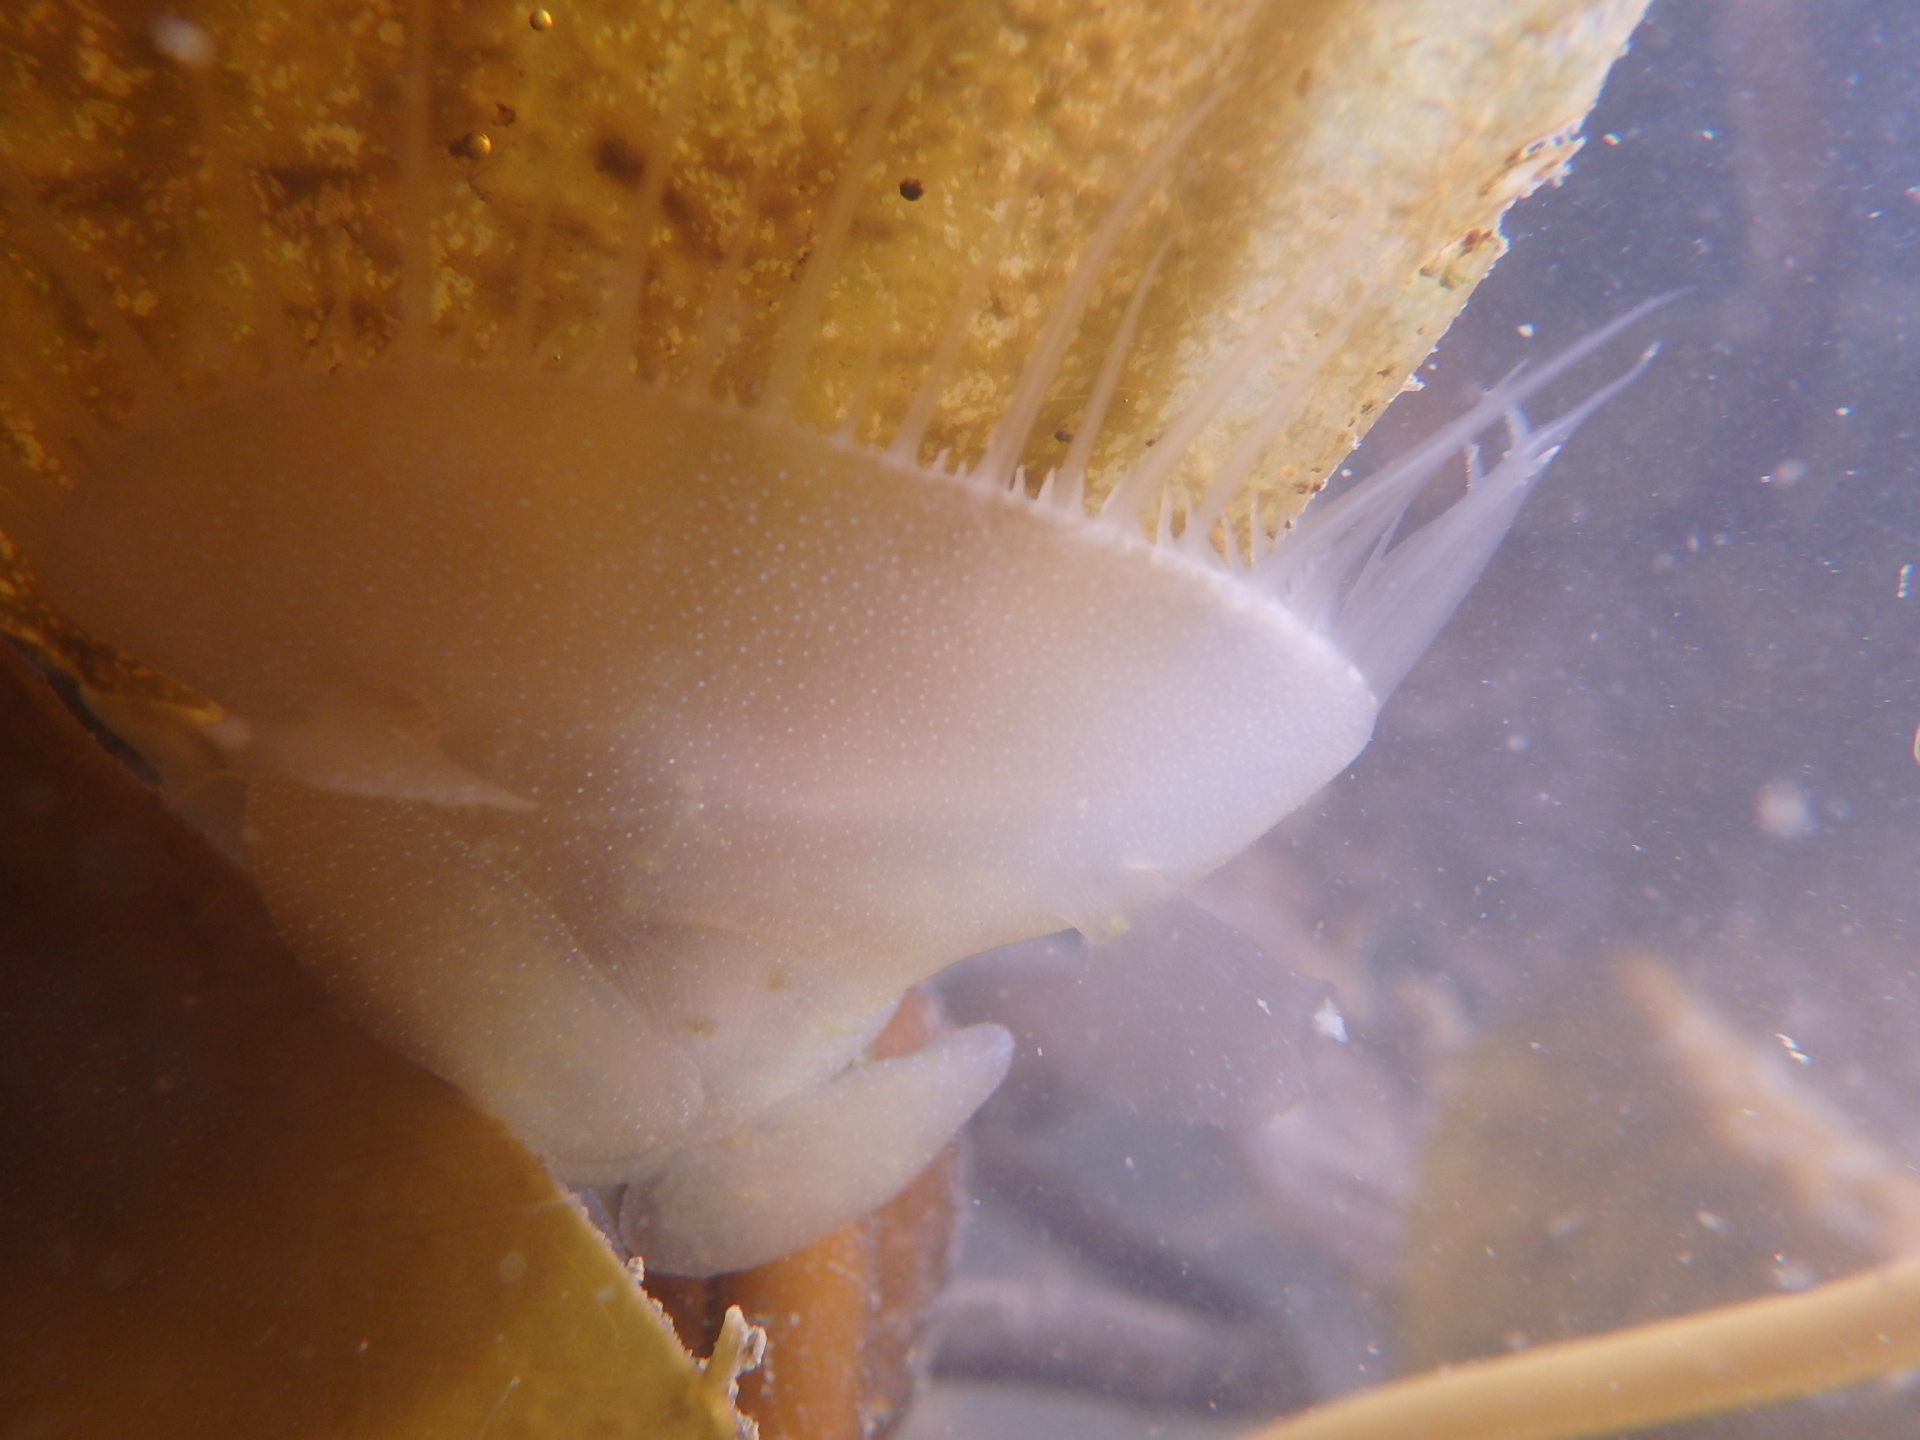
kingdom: Animalia
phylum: Mollusca
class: Gastropoda
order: Nudibranchia
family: Tethydidae
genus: Melibe
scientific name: Melibe leonina
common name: Lion nudibranch
